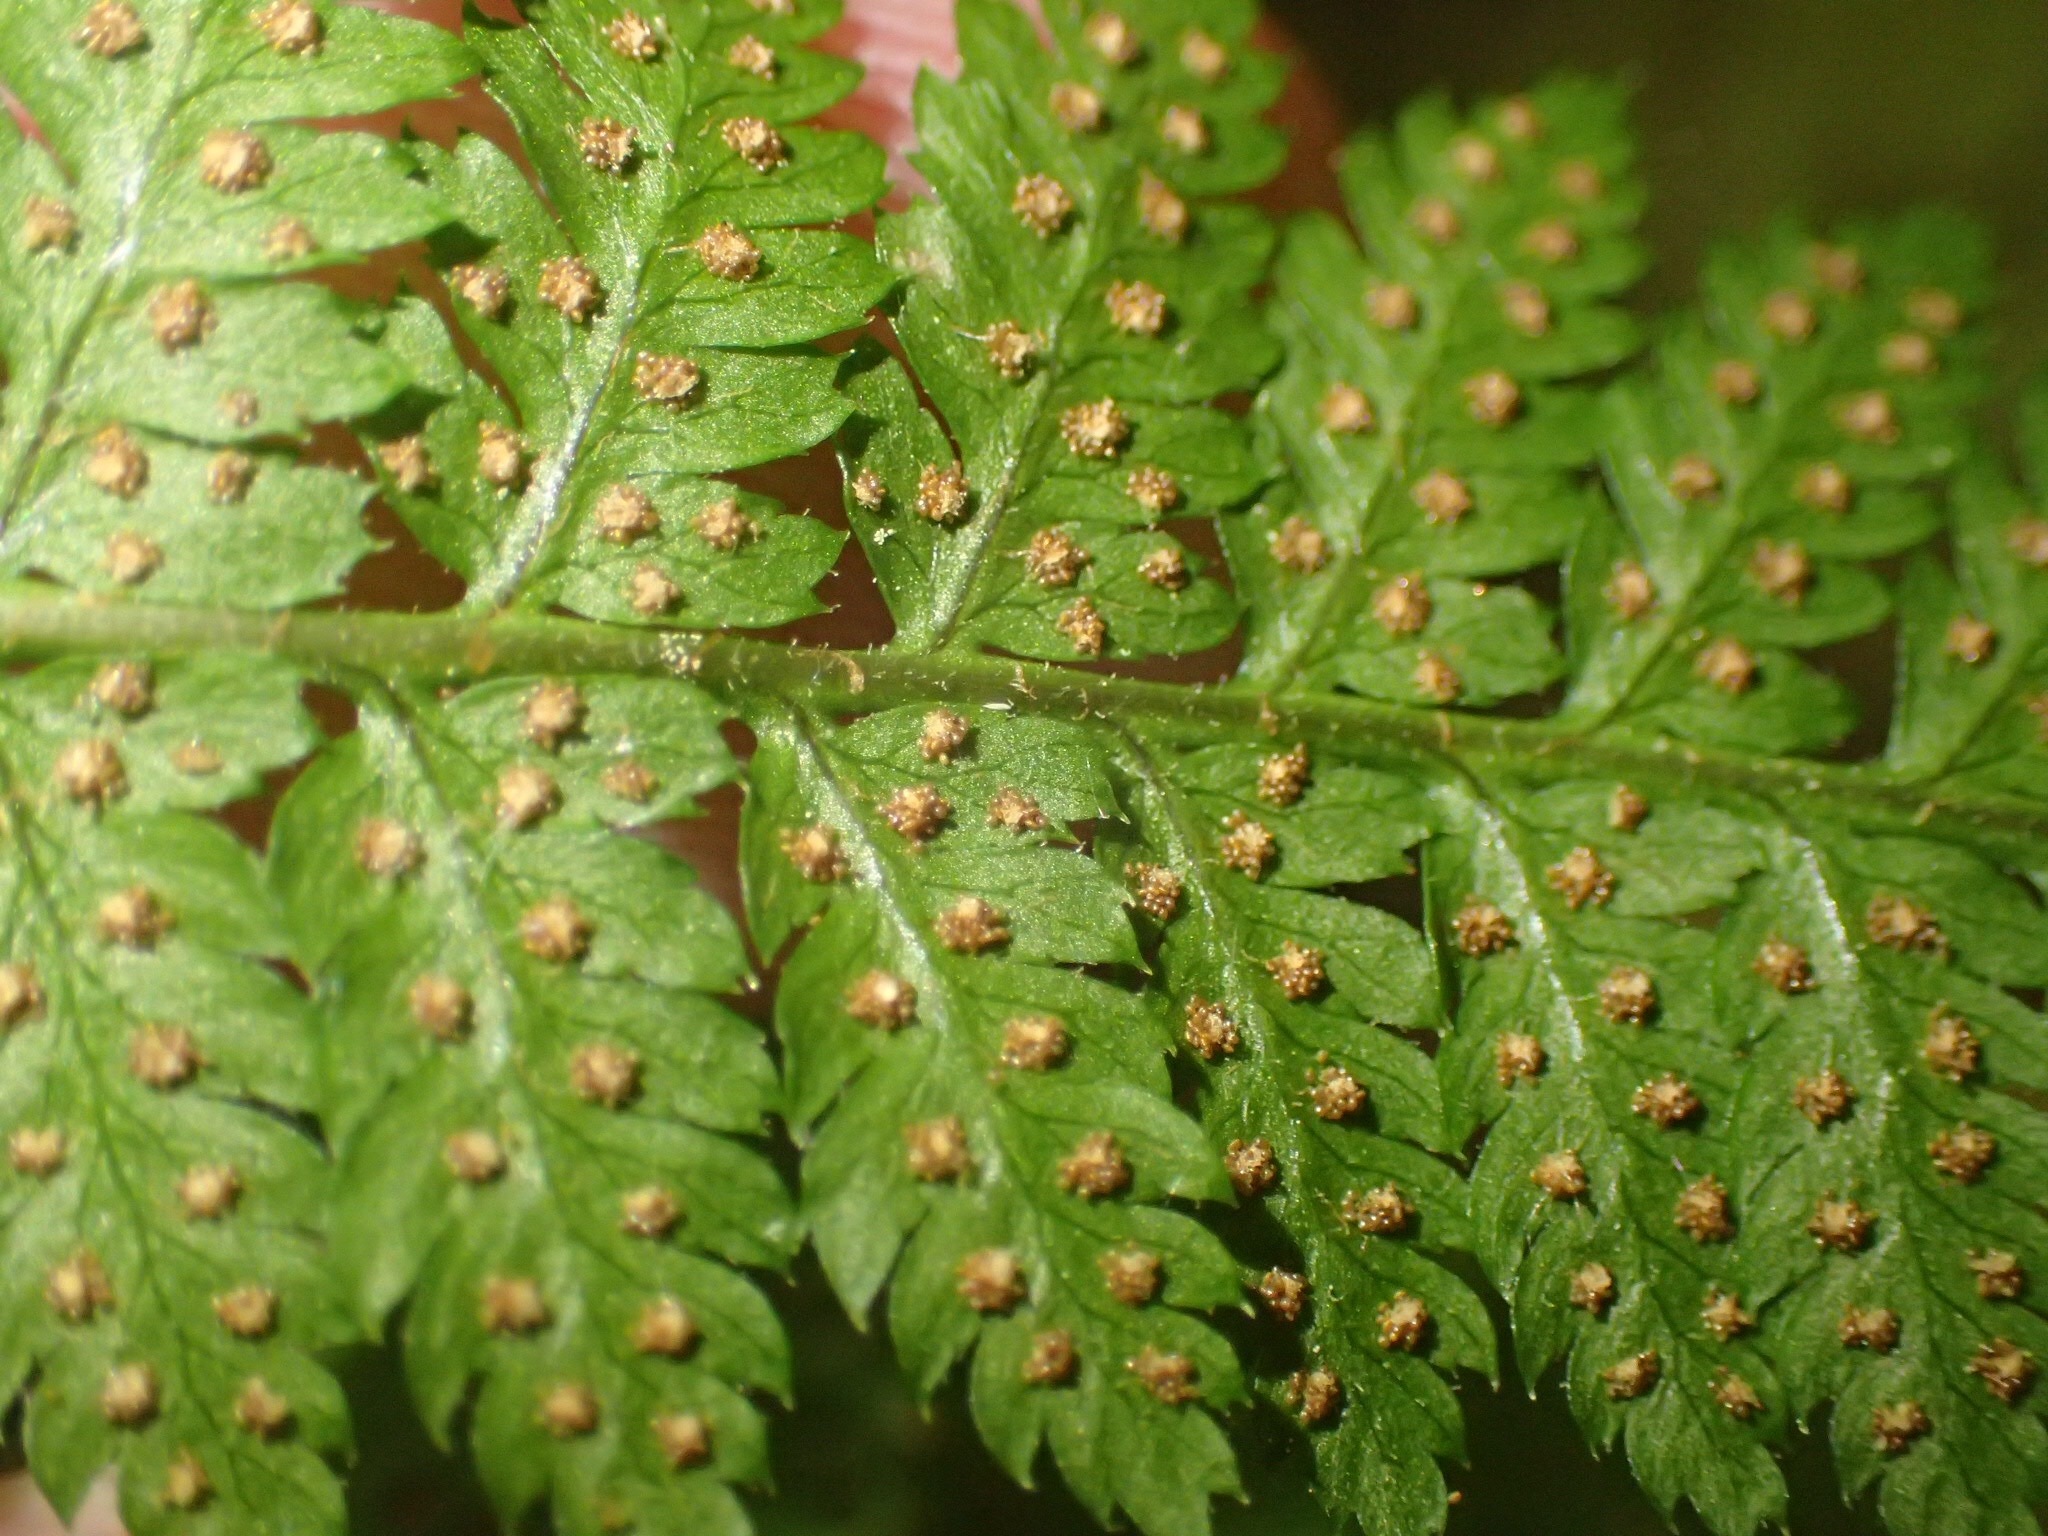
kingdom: Plantae
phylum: Tracheophyta
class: Polypodiopsida
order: Polypodiales
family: Dryopteridaceae
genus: Dryopteris
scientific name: Dryopteris carthusiana
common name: Narrow buckler-fern
